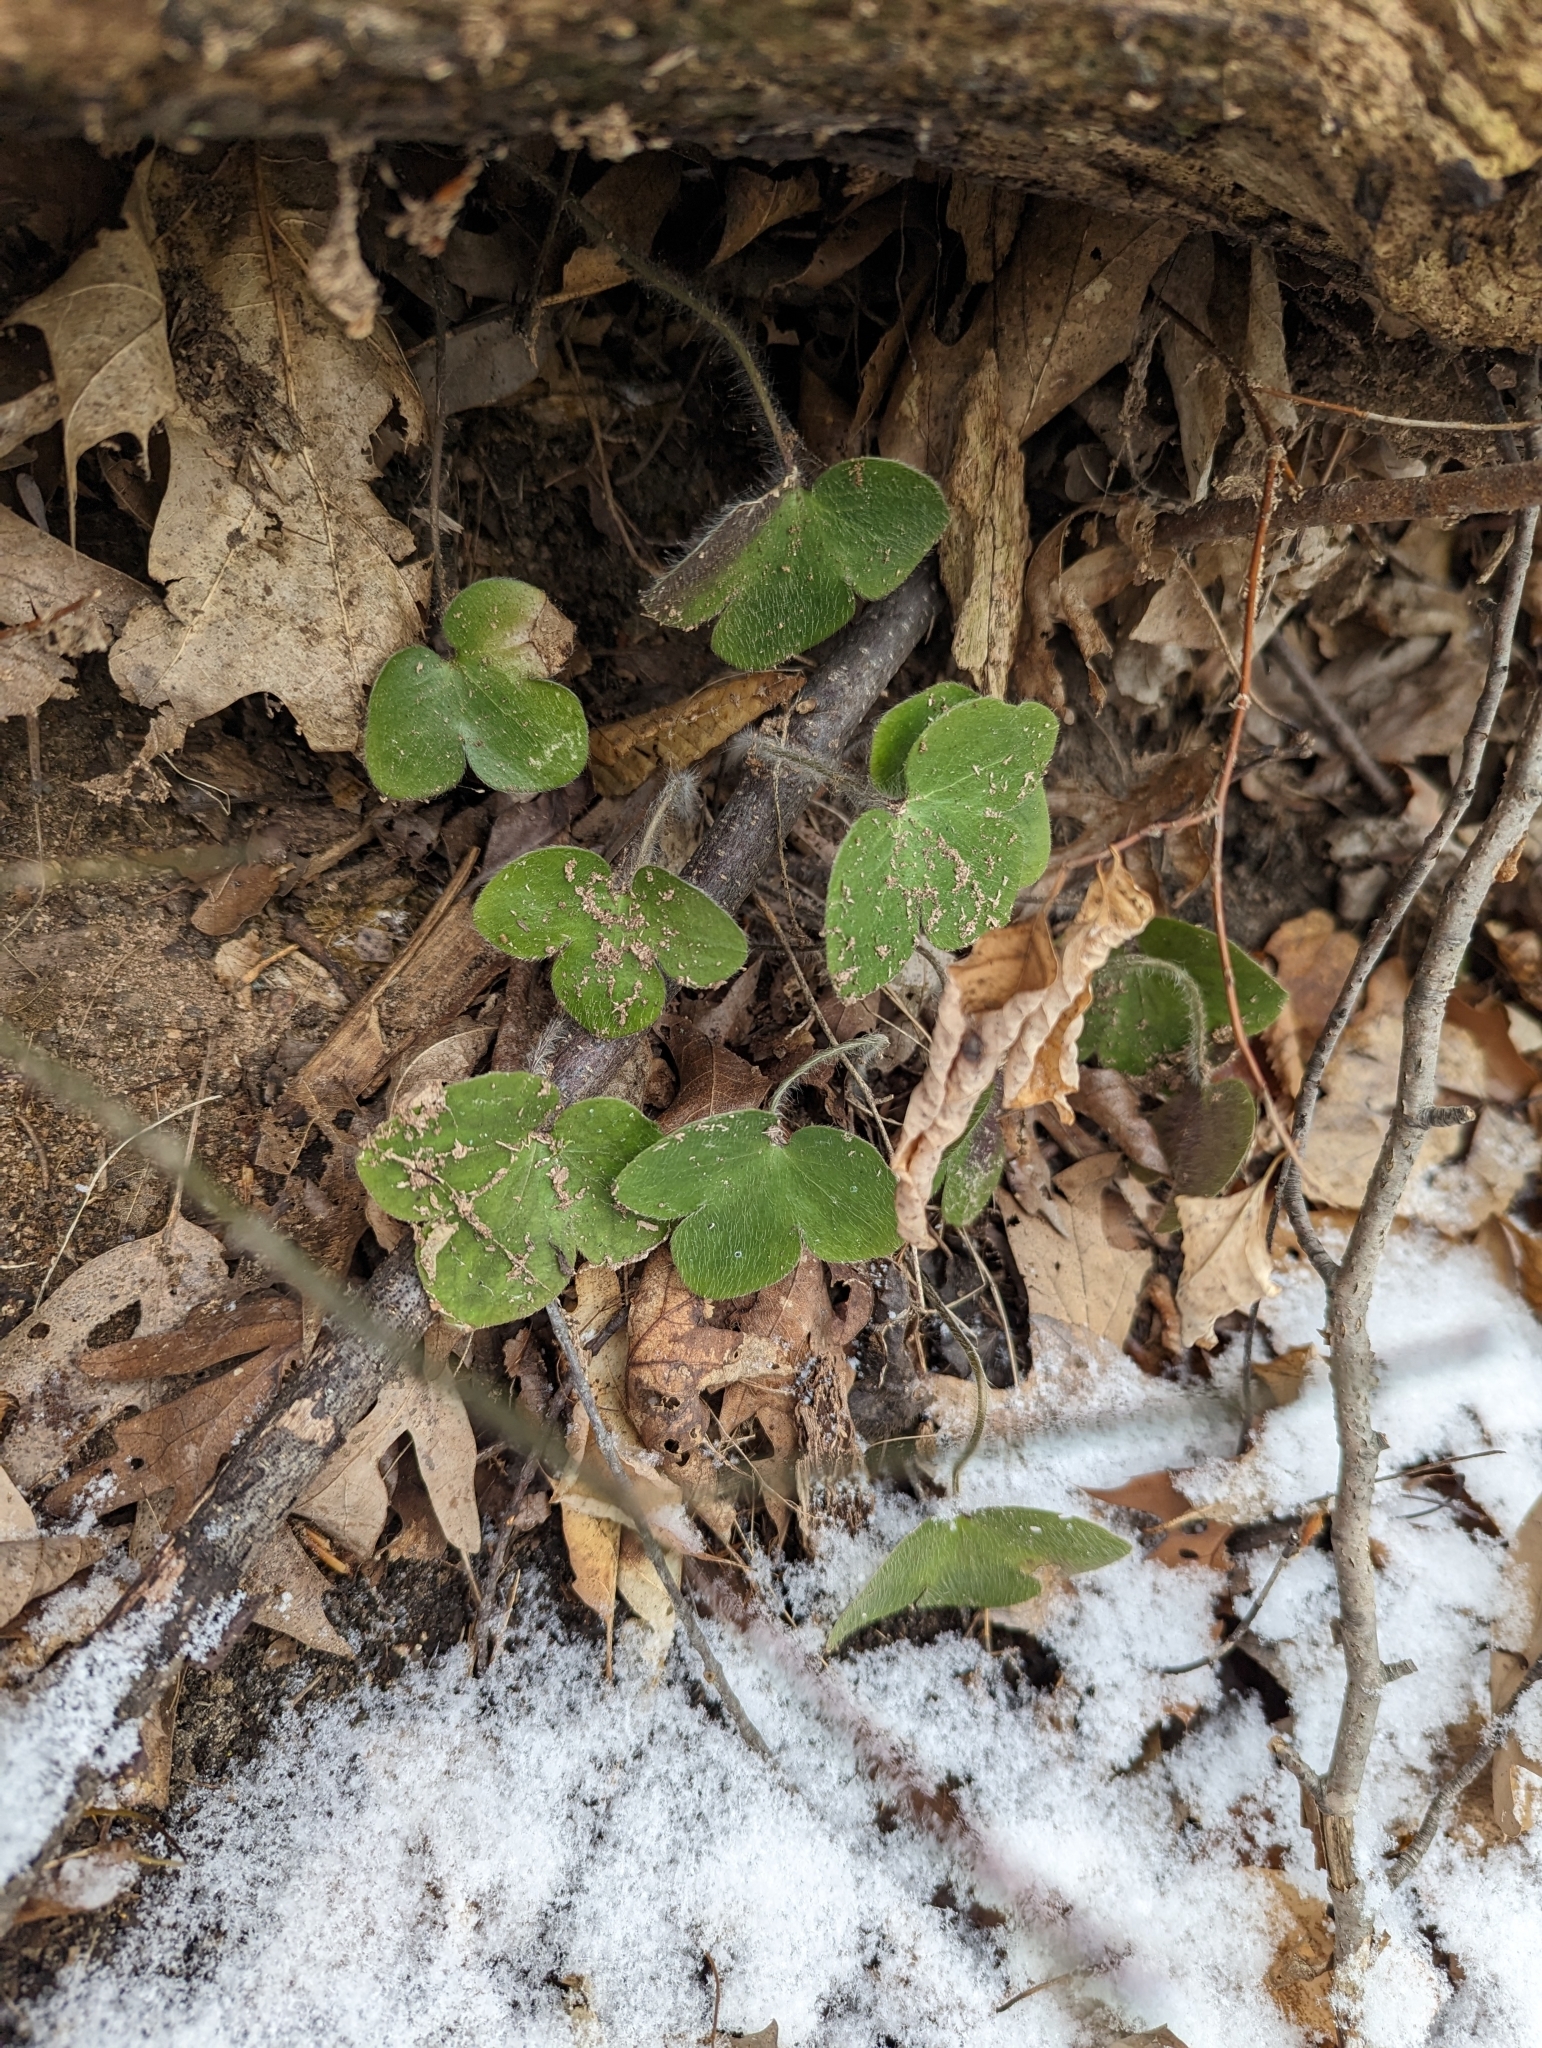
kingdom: Plantae
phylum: Tracheophyta
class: Magnoliopsida
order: Ranunculales
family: Ranunculaceae
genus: Hepatica
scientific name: Hepatica americana
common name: American hepatica
